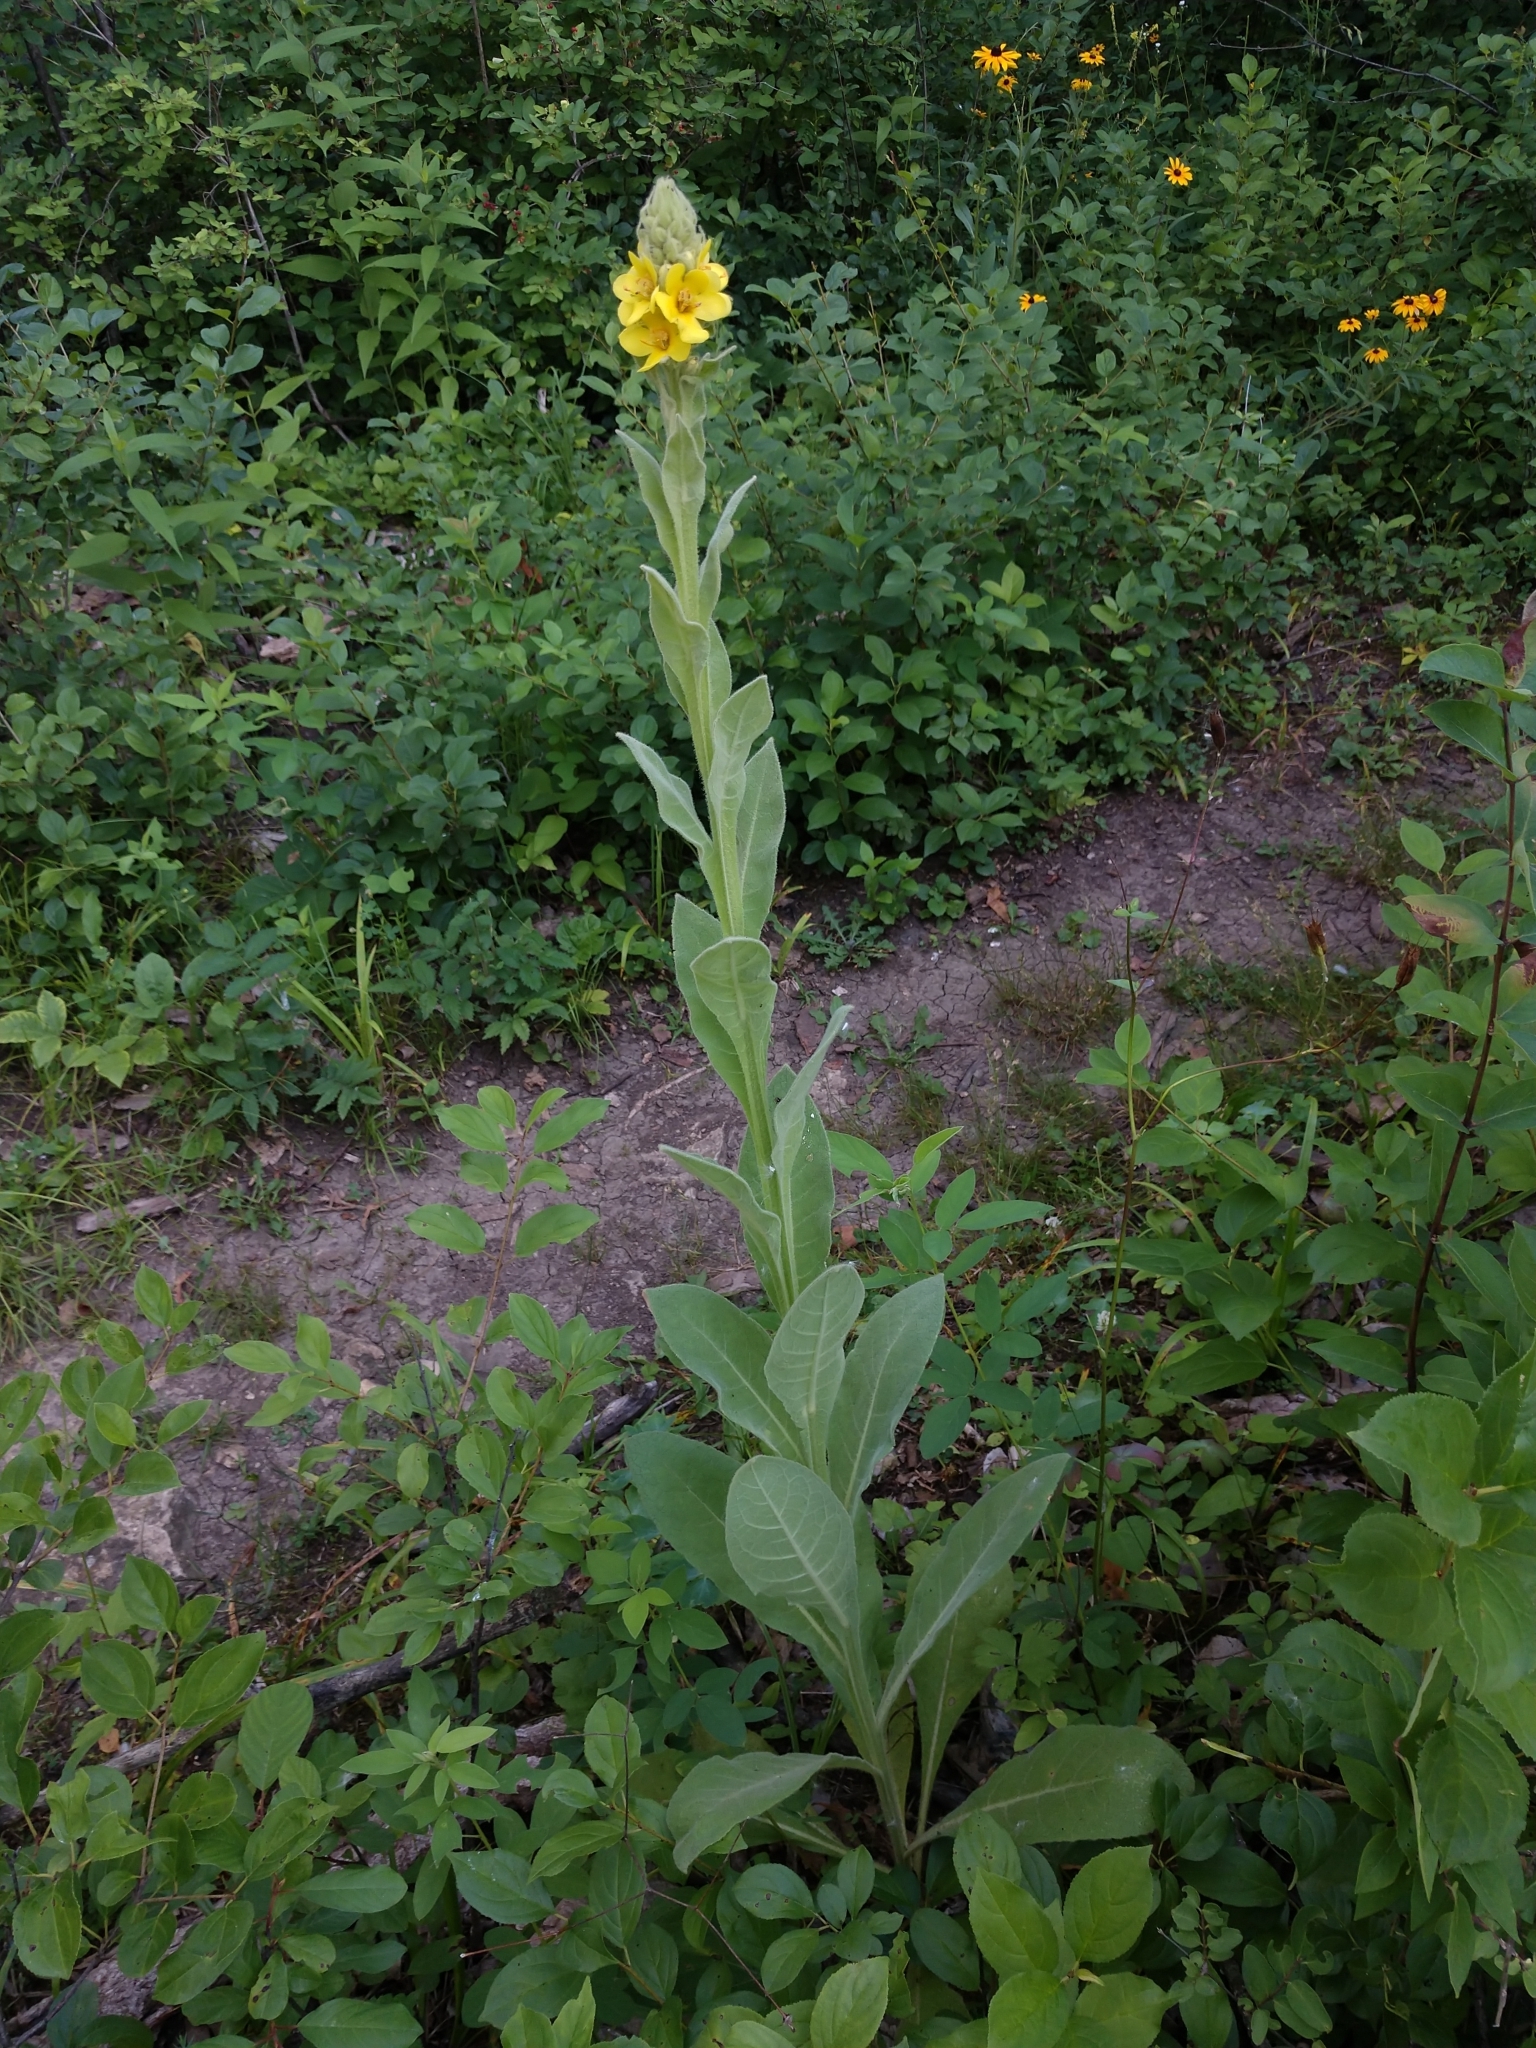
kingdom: Plantae
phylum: Tracheophyta
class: Magnoliopsida
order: Lamiales
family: Scrophulariaceae
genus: Verbascum
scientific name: Verbascum thapsus
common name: Common mullein
